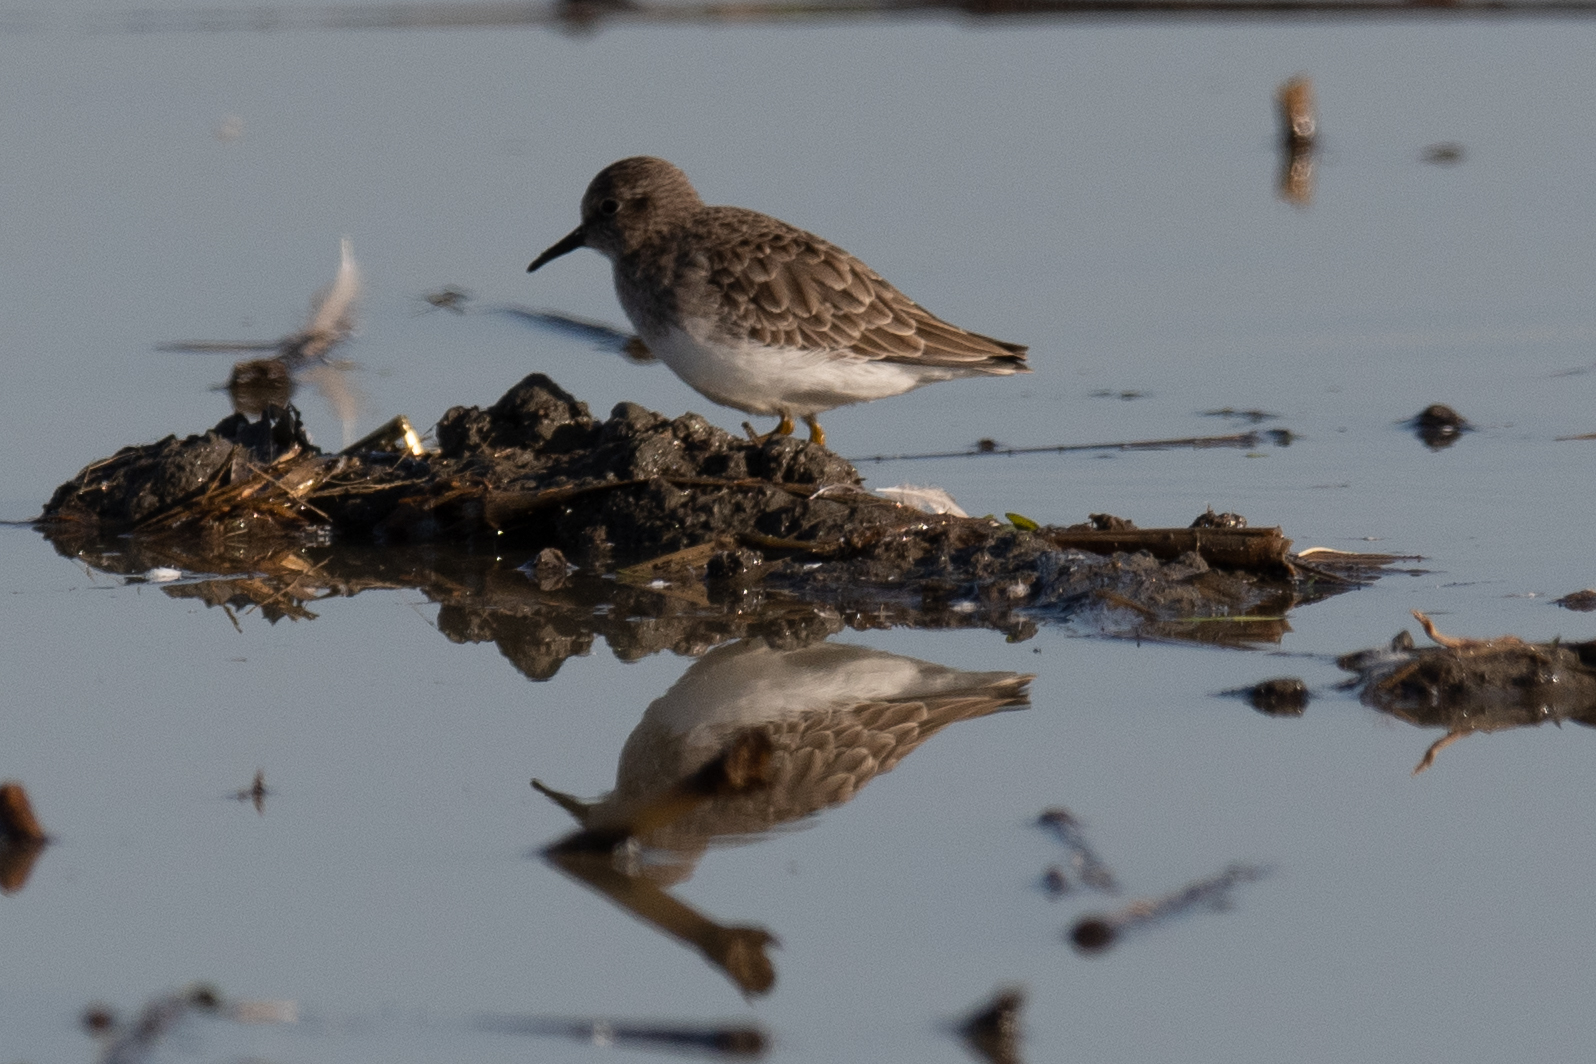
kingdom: Animalia
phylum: Chordata
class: Aves
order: Charadriiformes
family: Scolopacidae
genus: Calidris
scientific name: Calidris minutilla
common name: Least sandpiper
